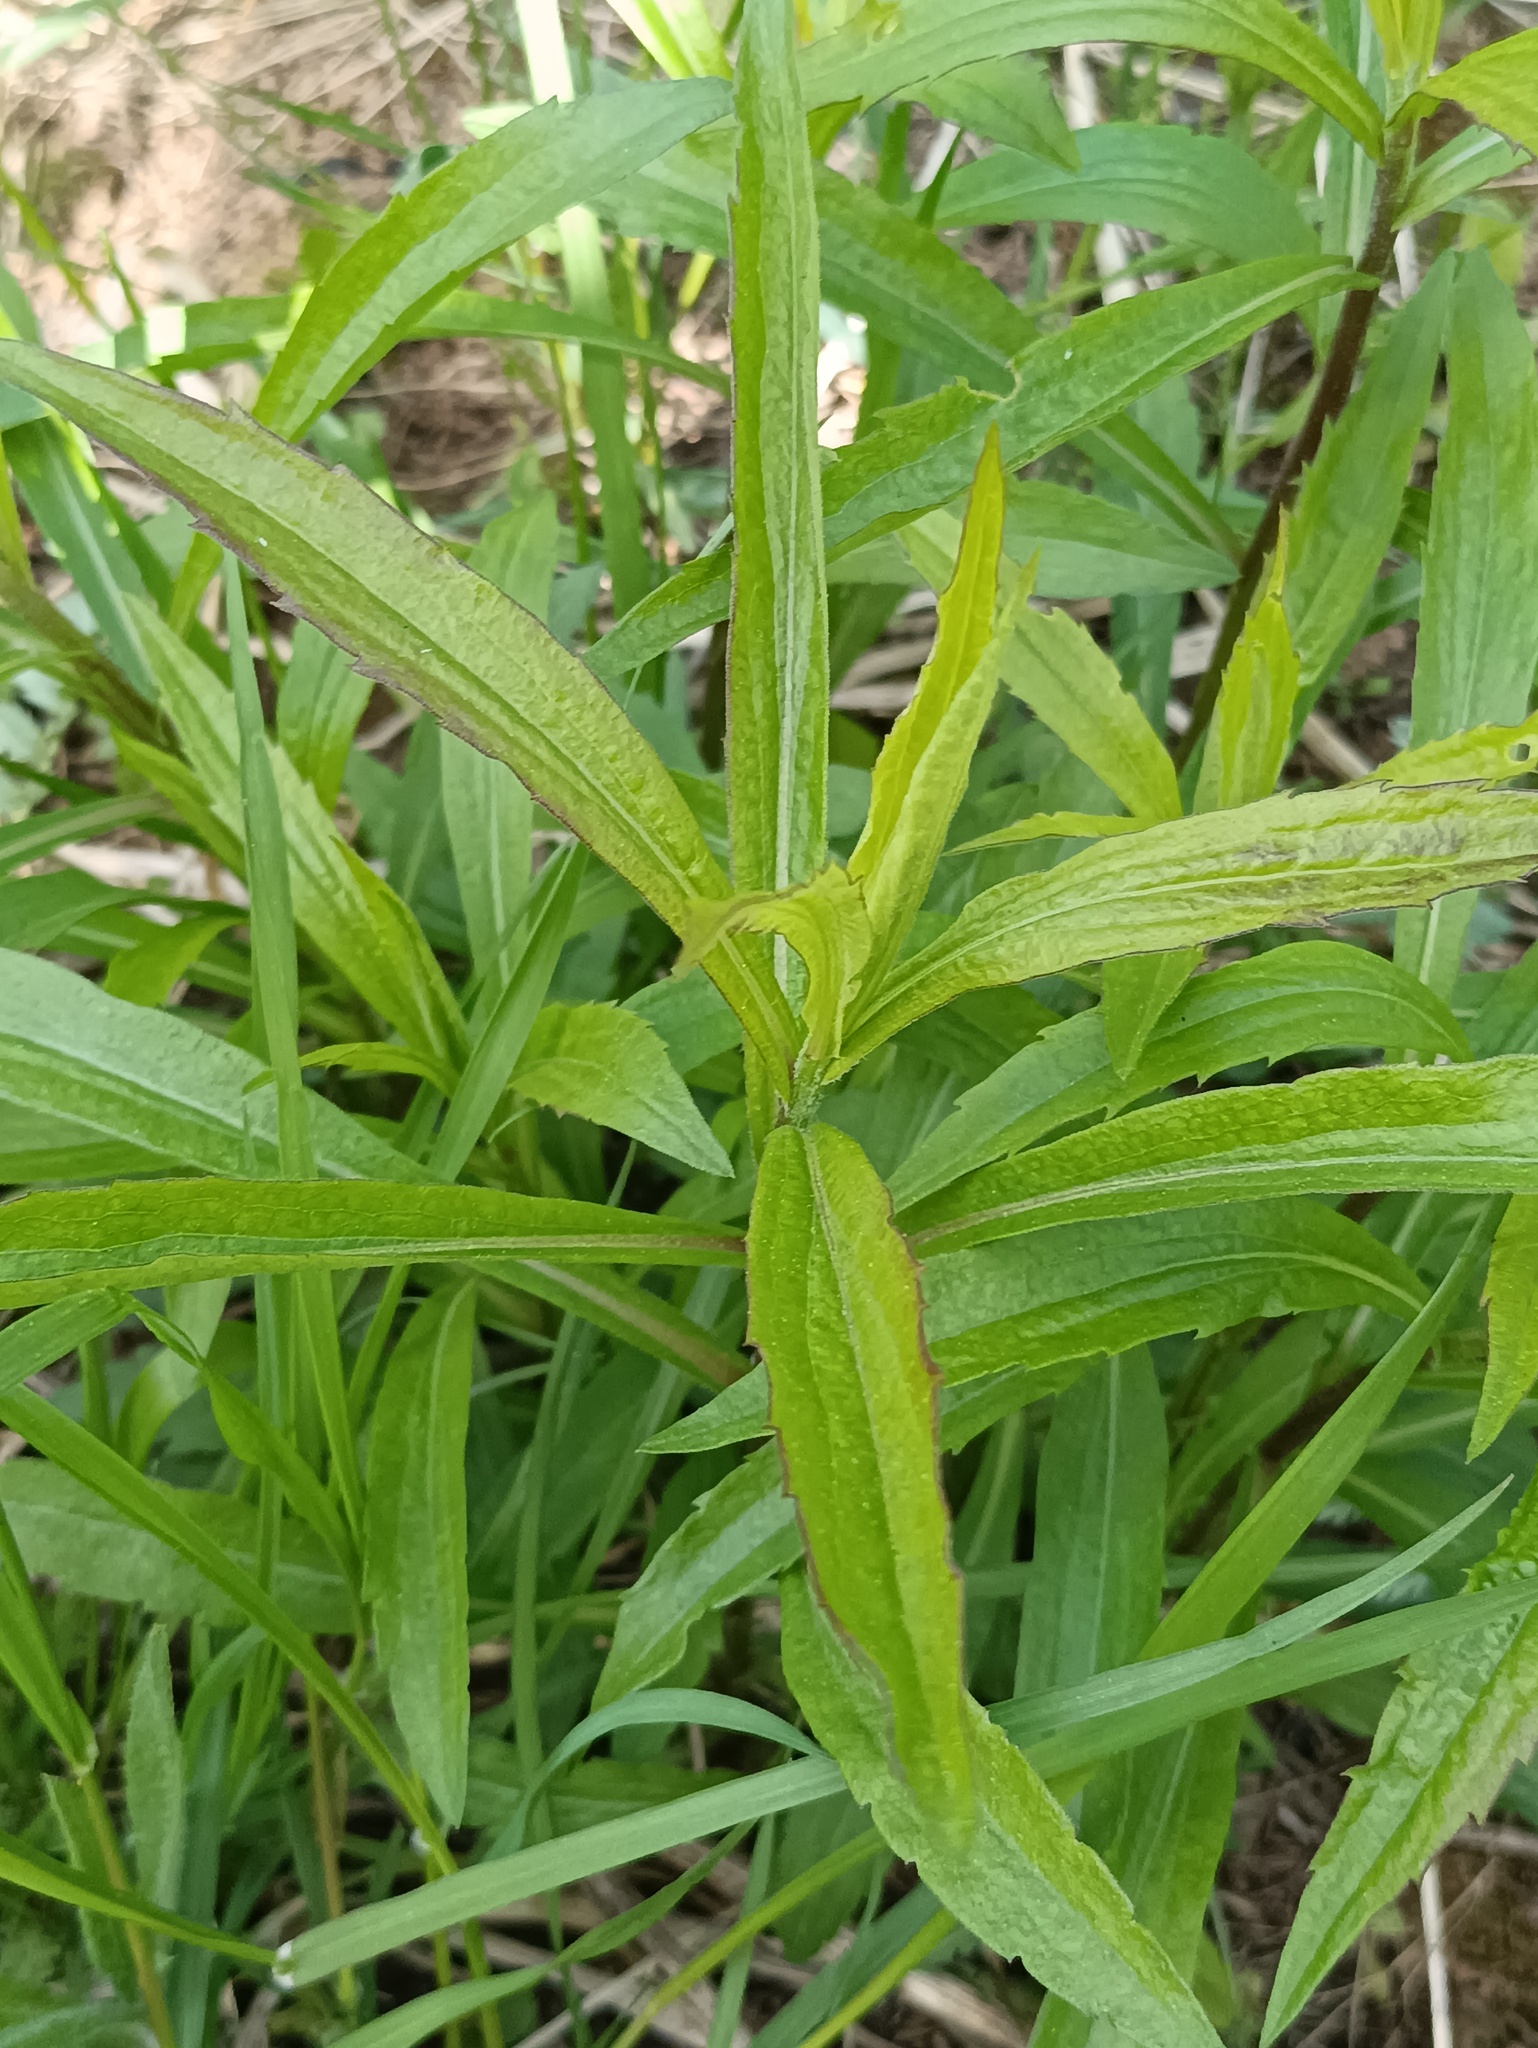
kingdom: Plantae
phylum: Tracheophyta
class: Magnoliopsida
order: Asterales
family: Asteraceae
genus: Solidago
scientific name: Solidago canadensis
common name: Canada goldenrod
